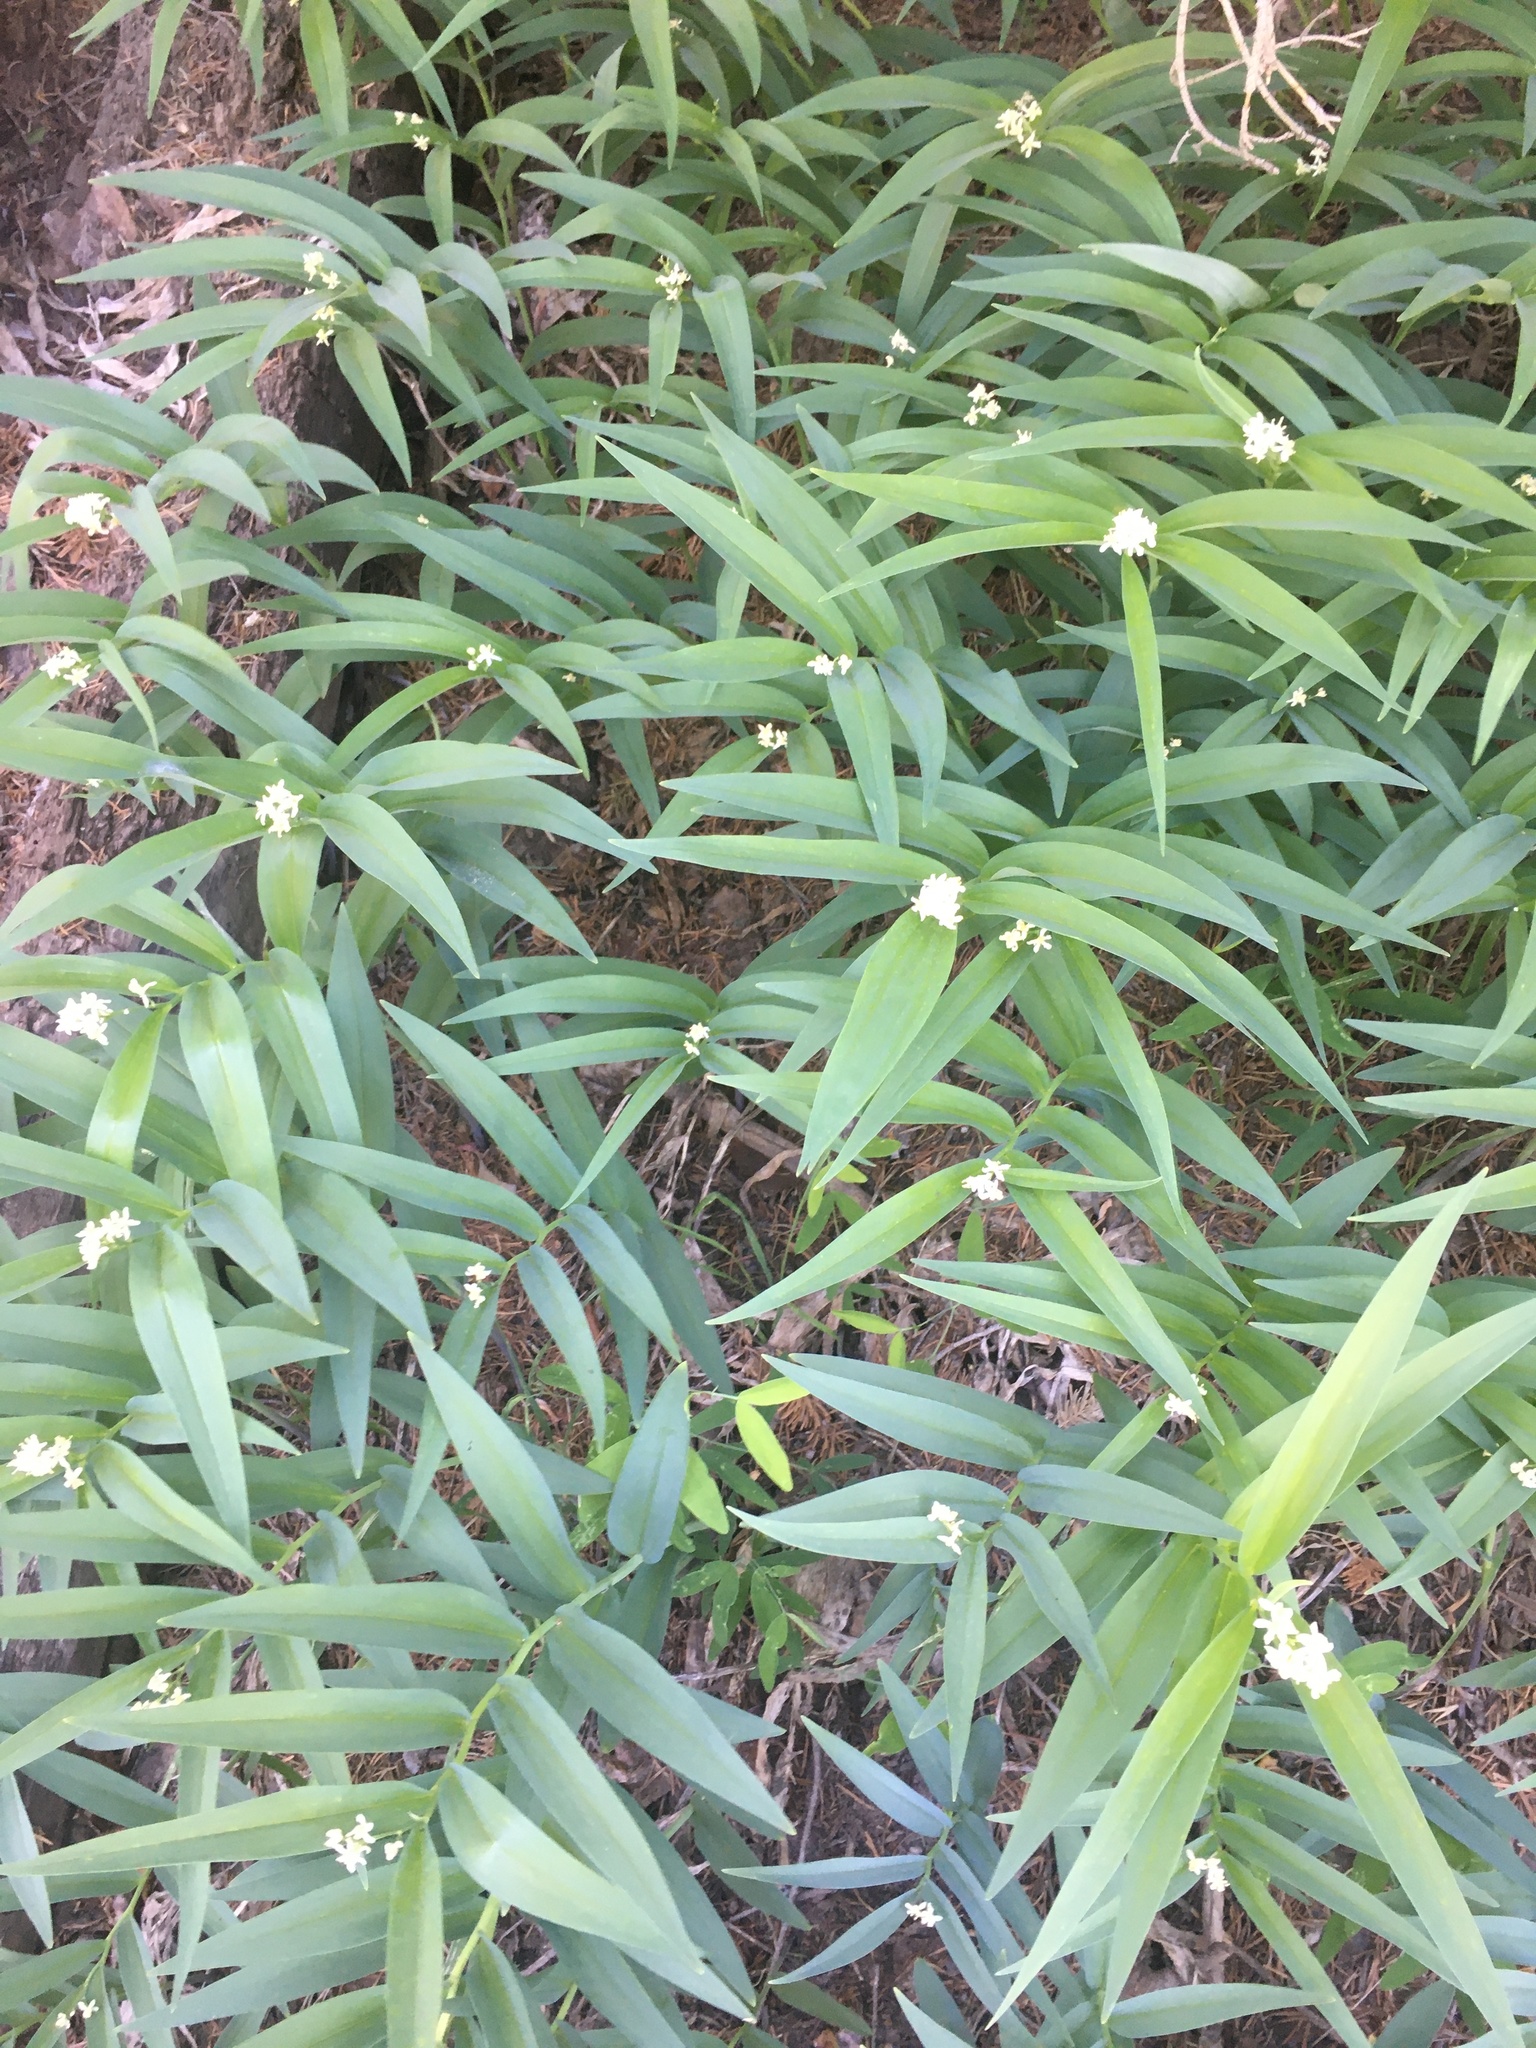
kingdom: Plantae
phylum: Tracheophyta
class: Liliopsida
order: Asparagales
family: Asparagaceae
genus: Maianthemum
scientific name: Maianthemum stellatum
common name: Little false solomon's seal
